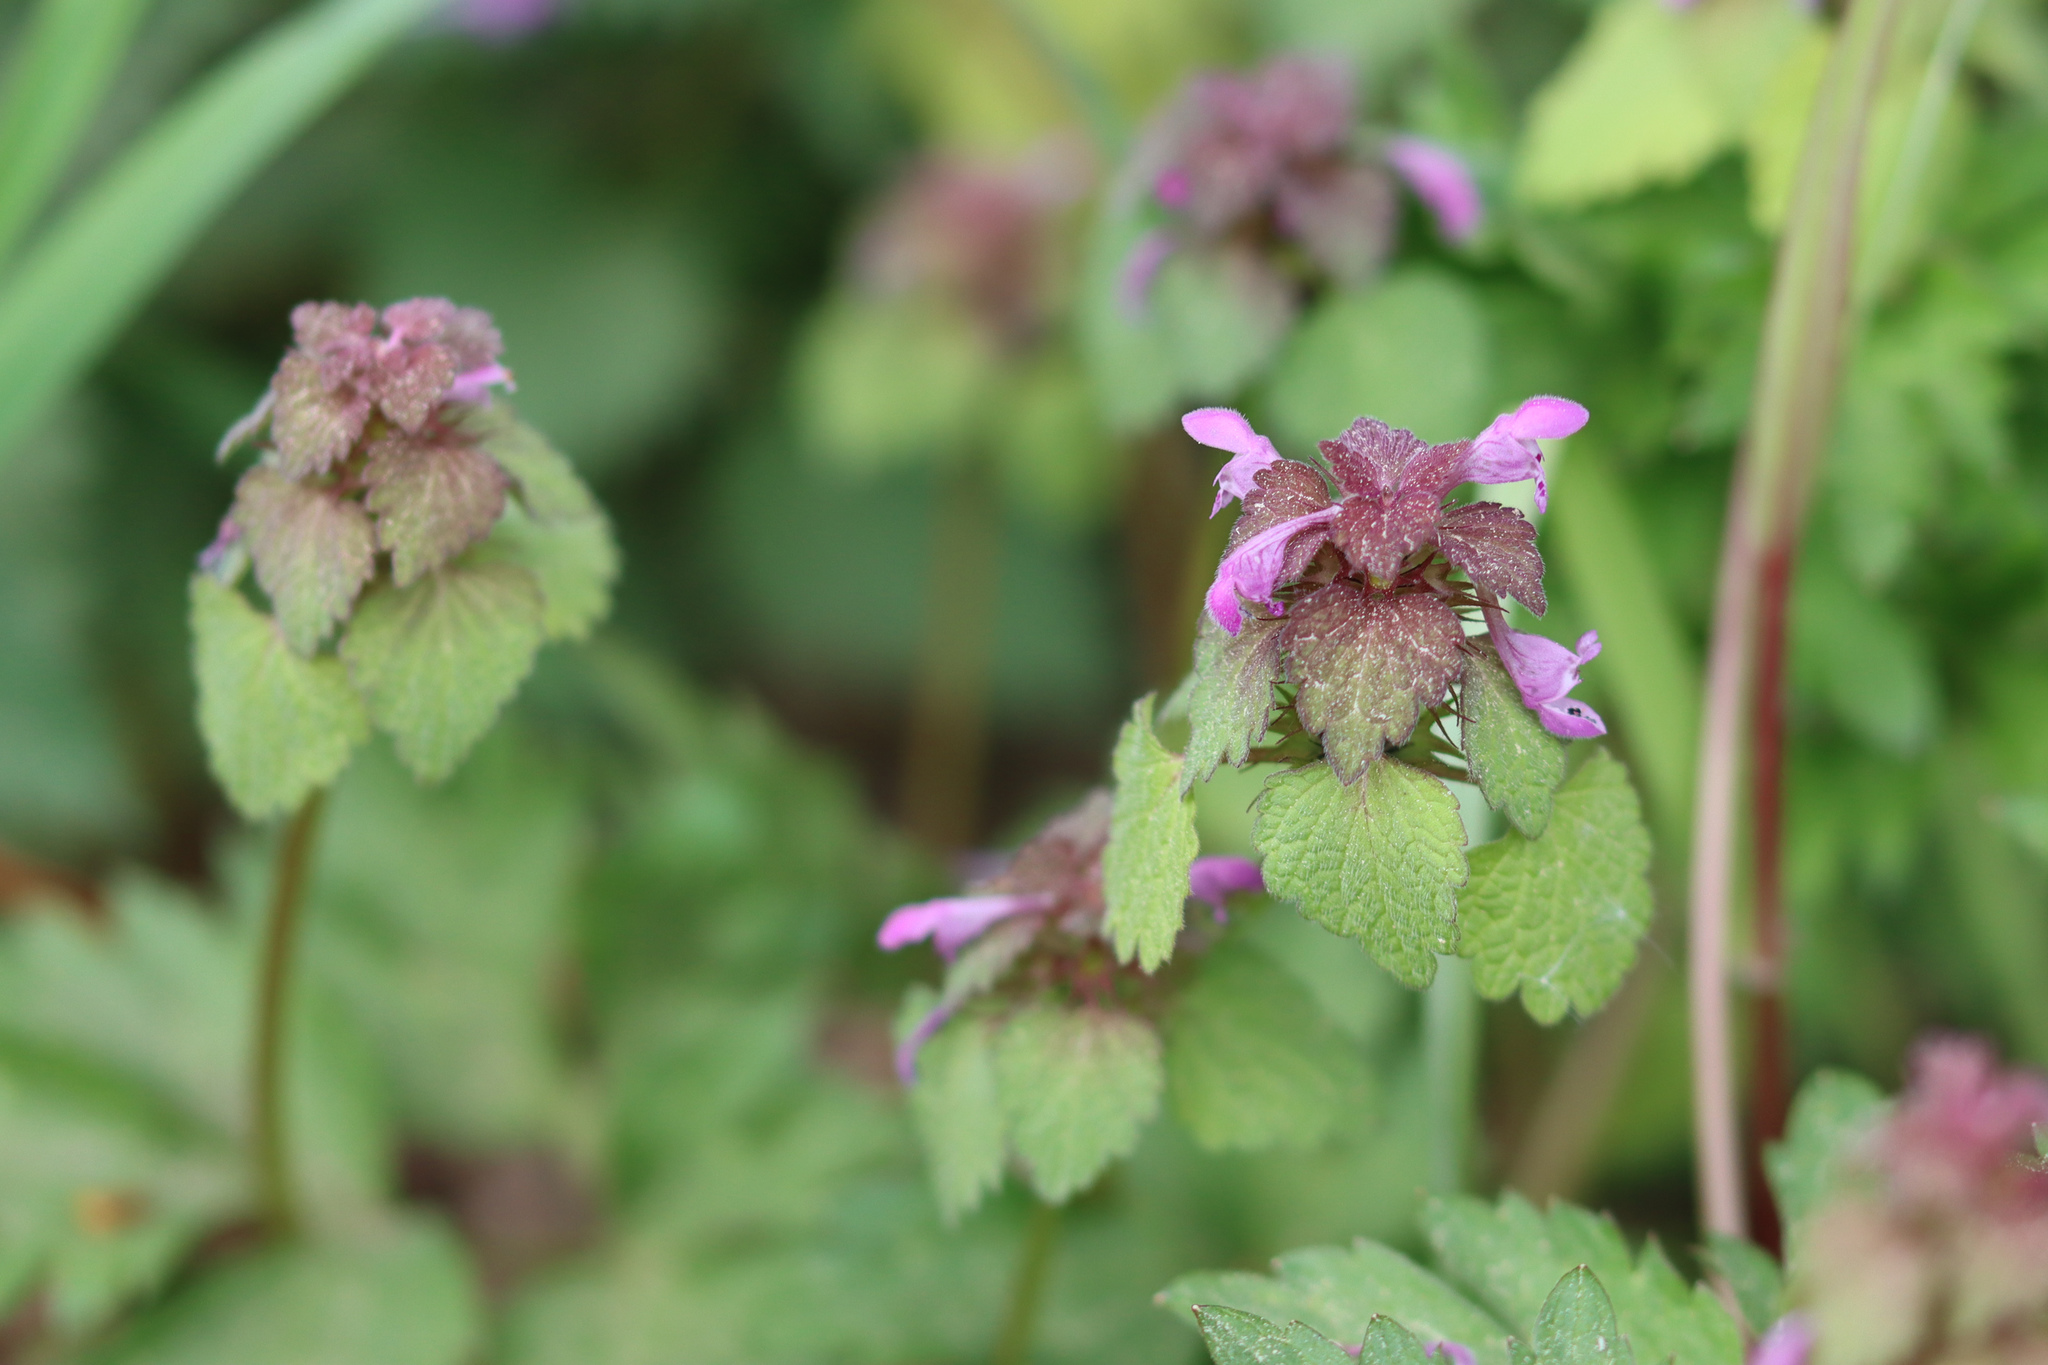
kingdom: Plantae
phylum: Tracheophyta
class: Magnoliopsida
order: Lamiales
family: Lamiaceae
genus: Lamium
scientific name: Lamium purpureum
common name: Red dead-nettle
